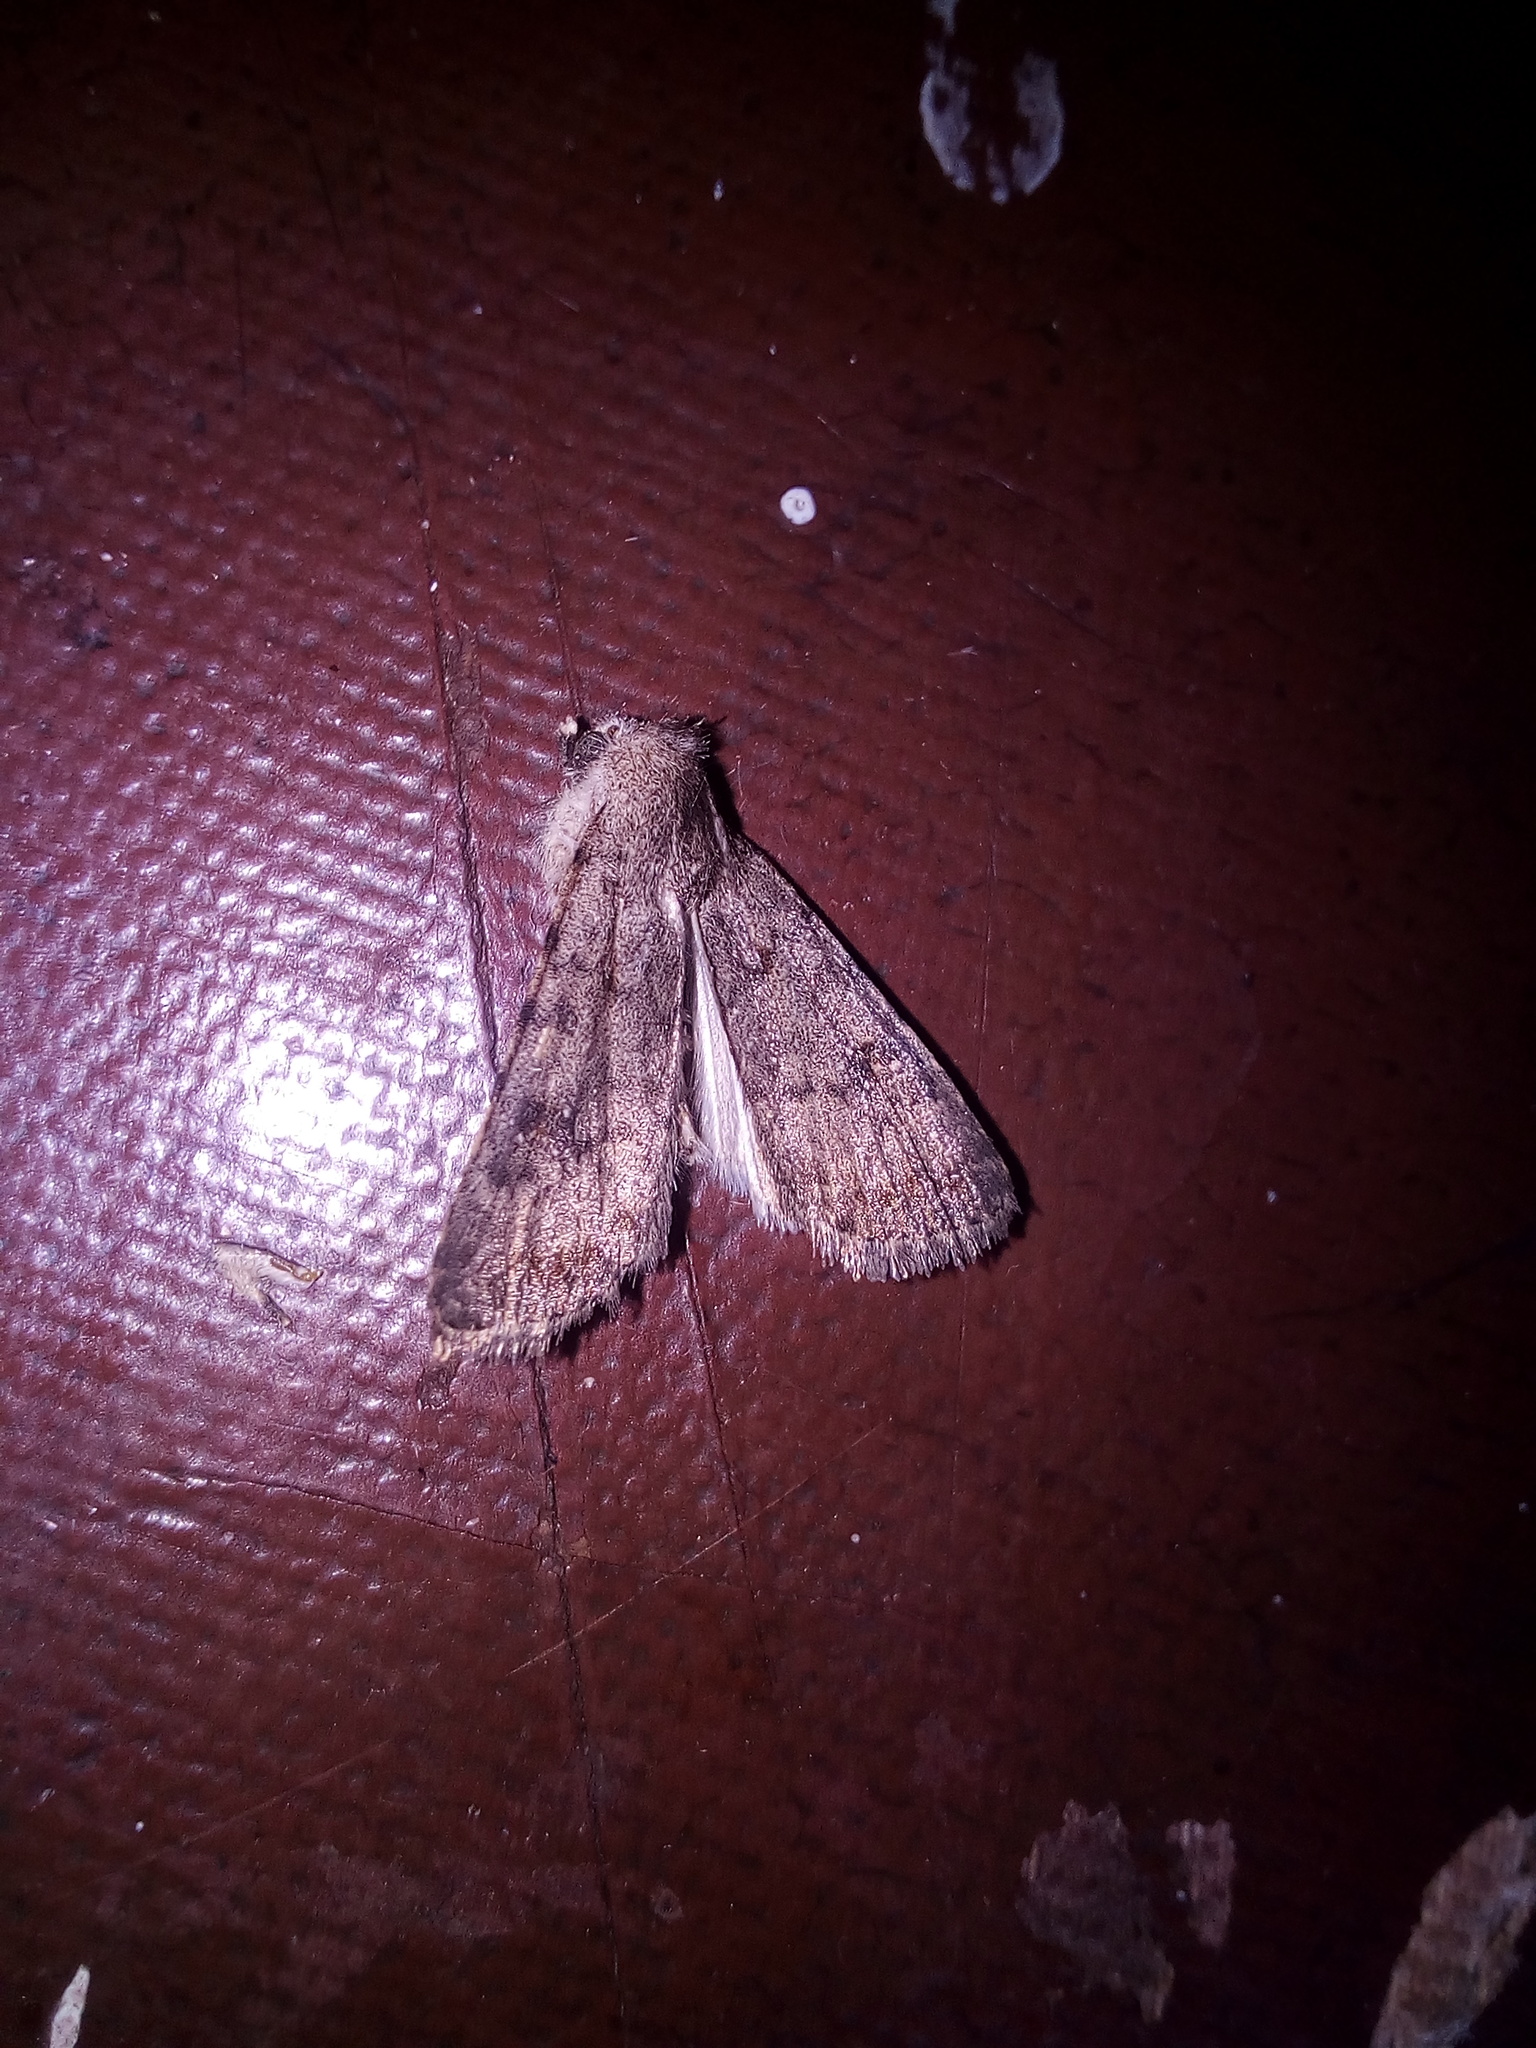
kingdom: Animalia
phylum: Arthropoda
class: Insecta
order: Lepidoptera
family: Noctuidae
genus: Caradrina
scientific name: Caradrina clavipalpis
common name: Pale mottled willow
